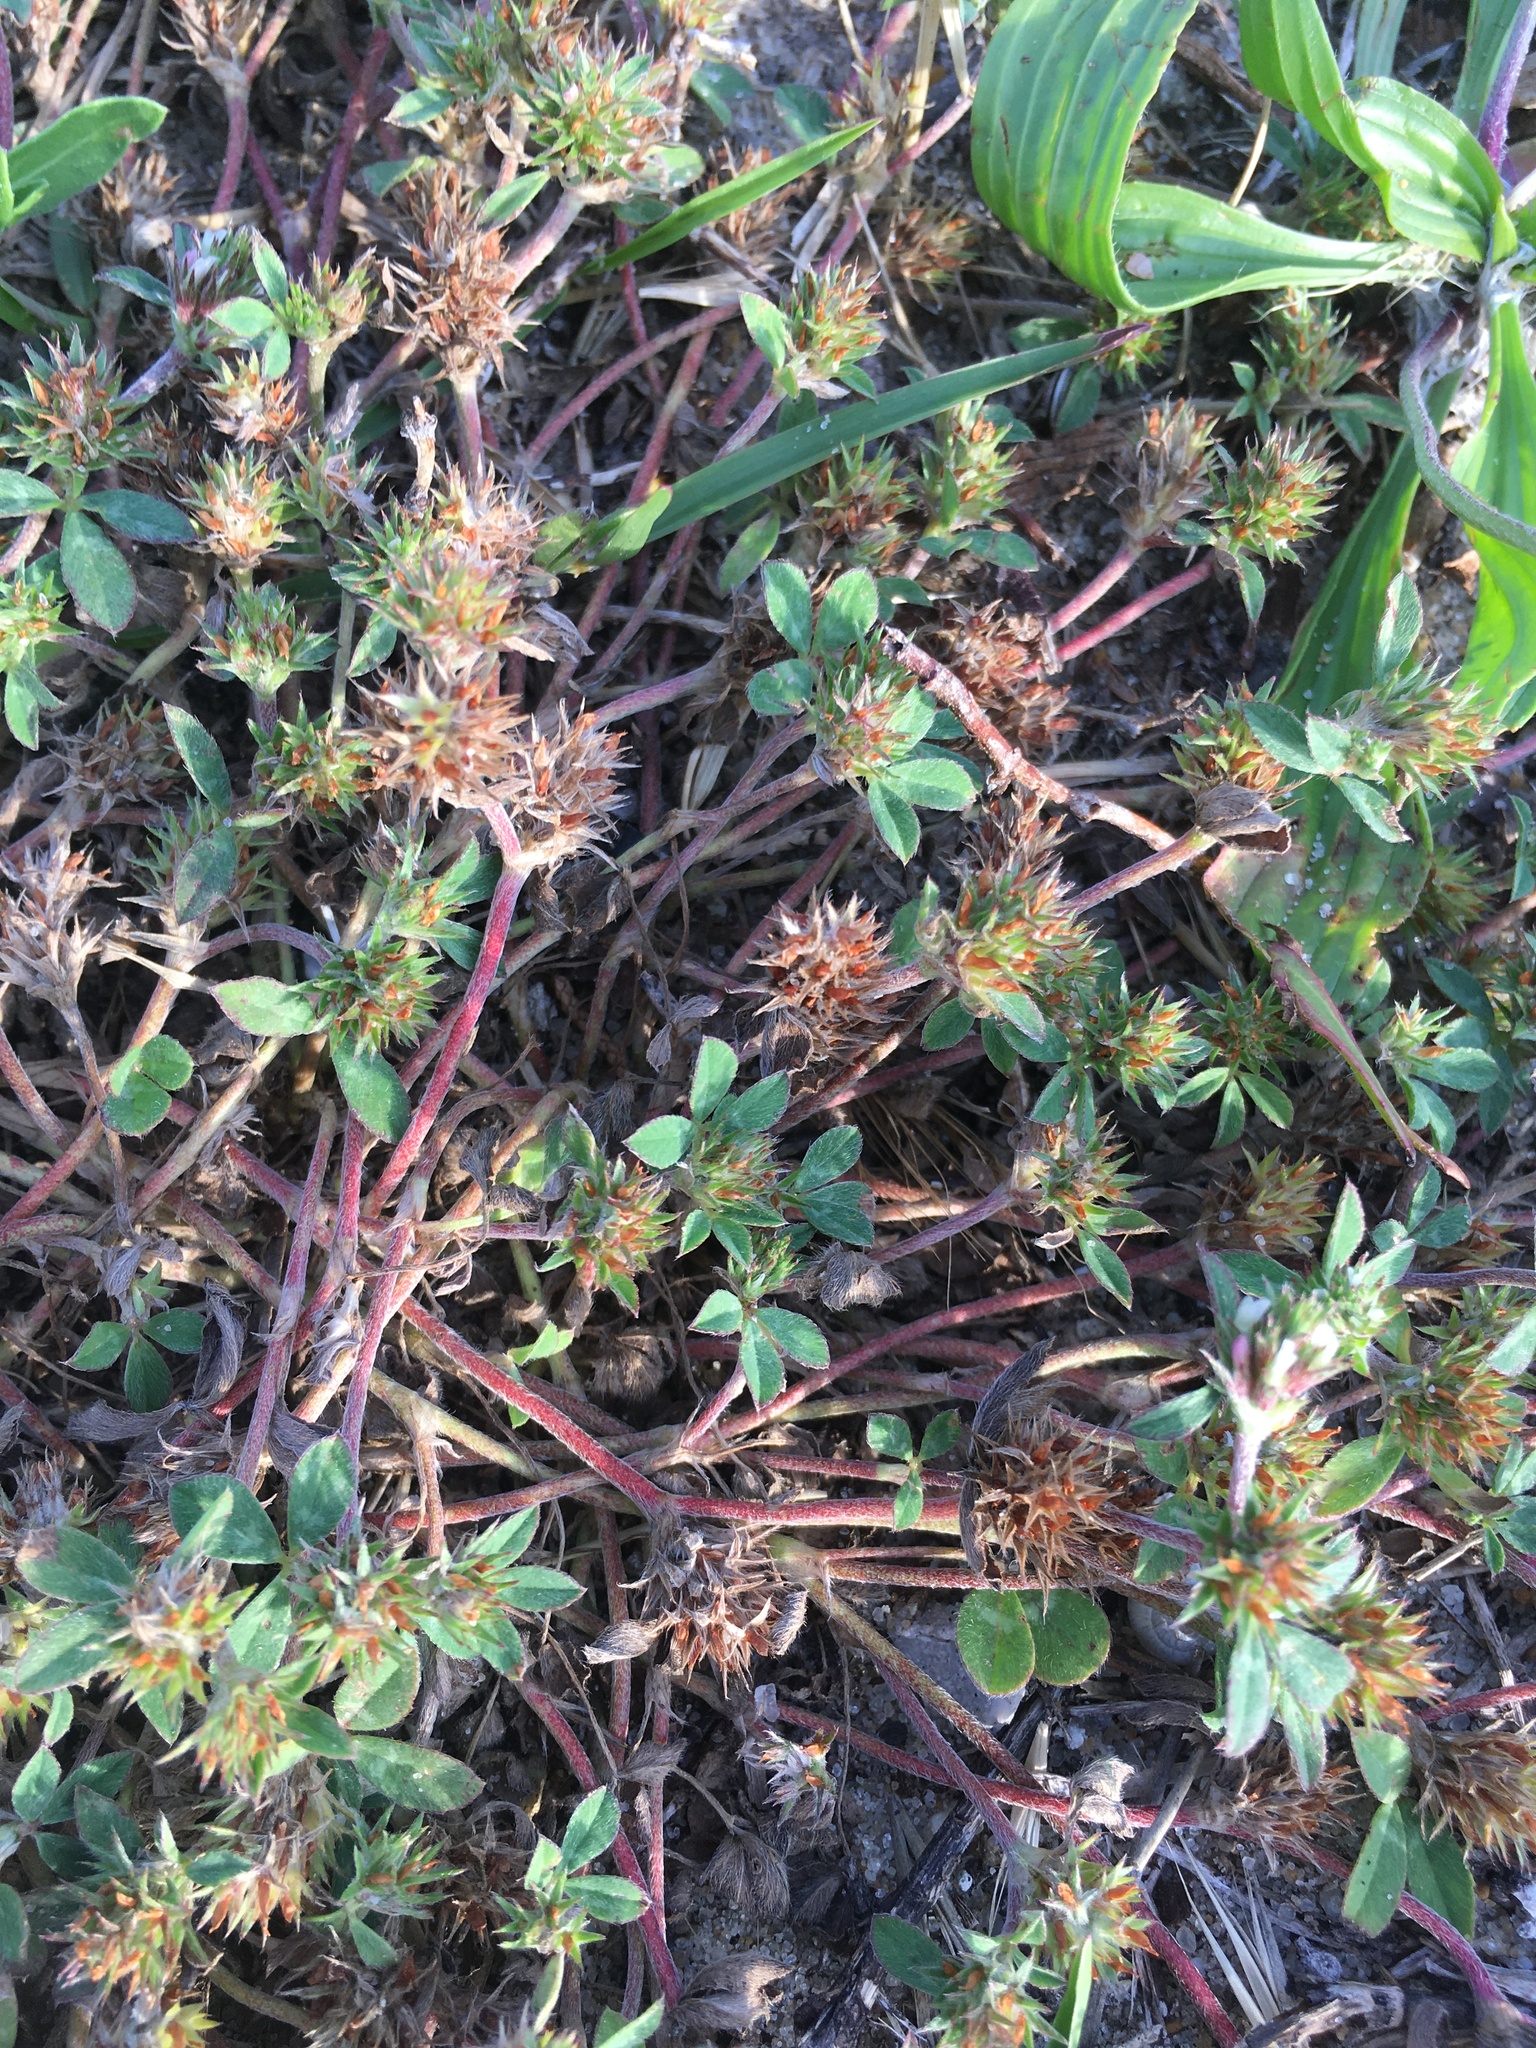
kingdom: Plantae
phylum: Tracheophyta
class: Magnoliopsida
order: Fabales
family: Fabaceae
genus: Trifolium
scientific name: Trifolium scabrum
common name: Rough clover
